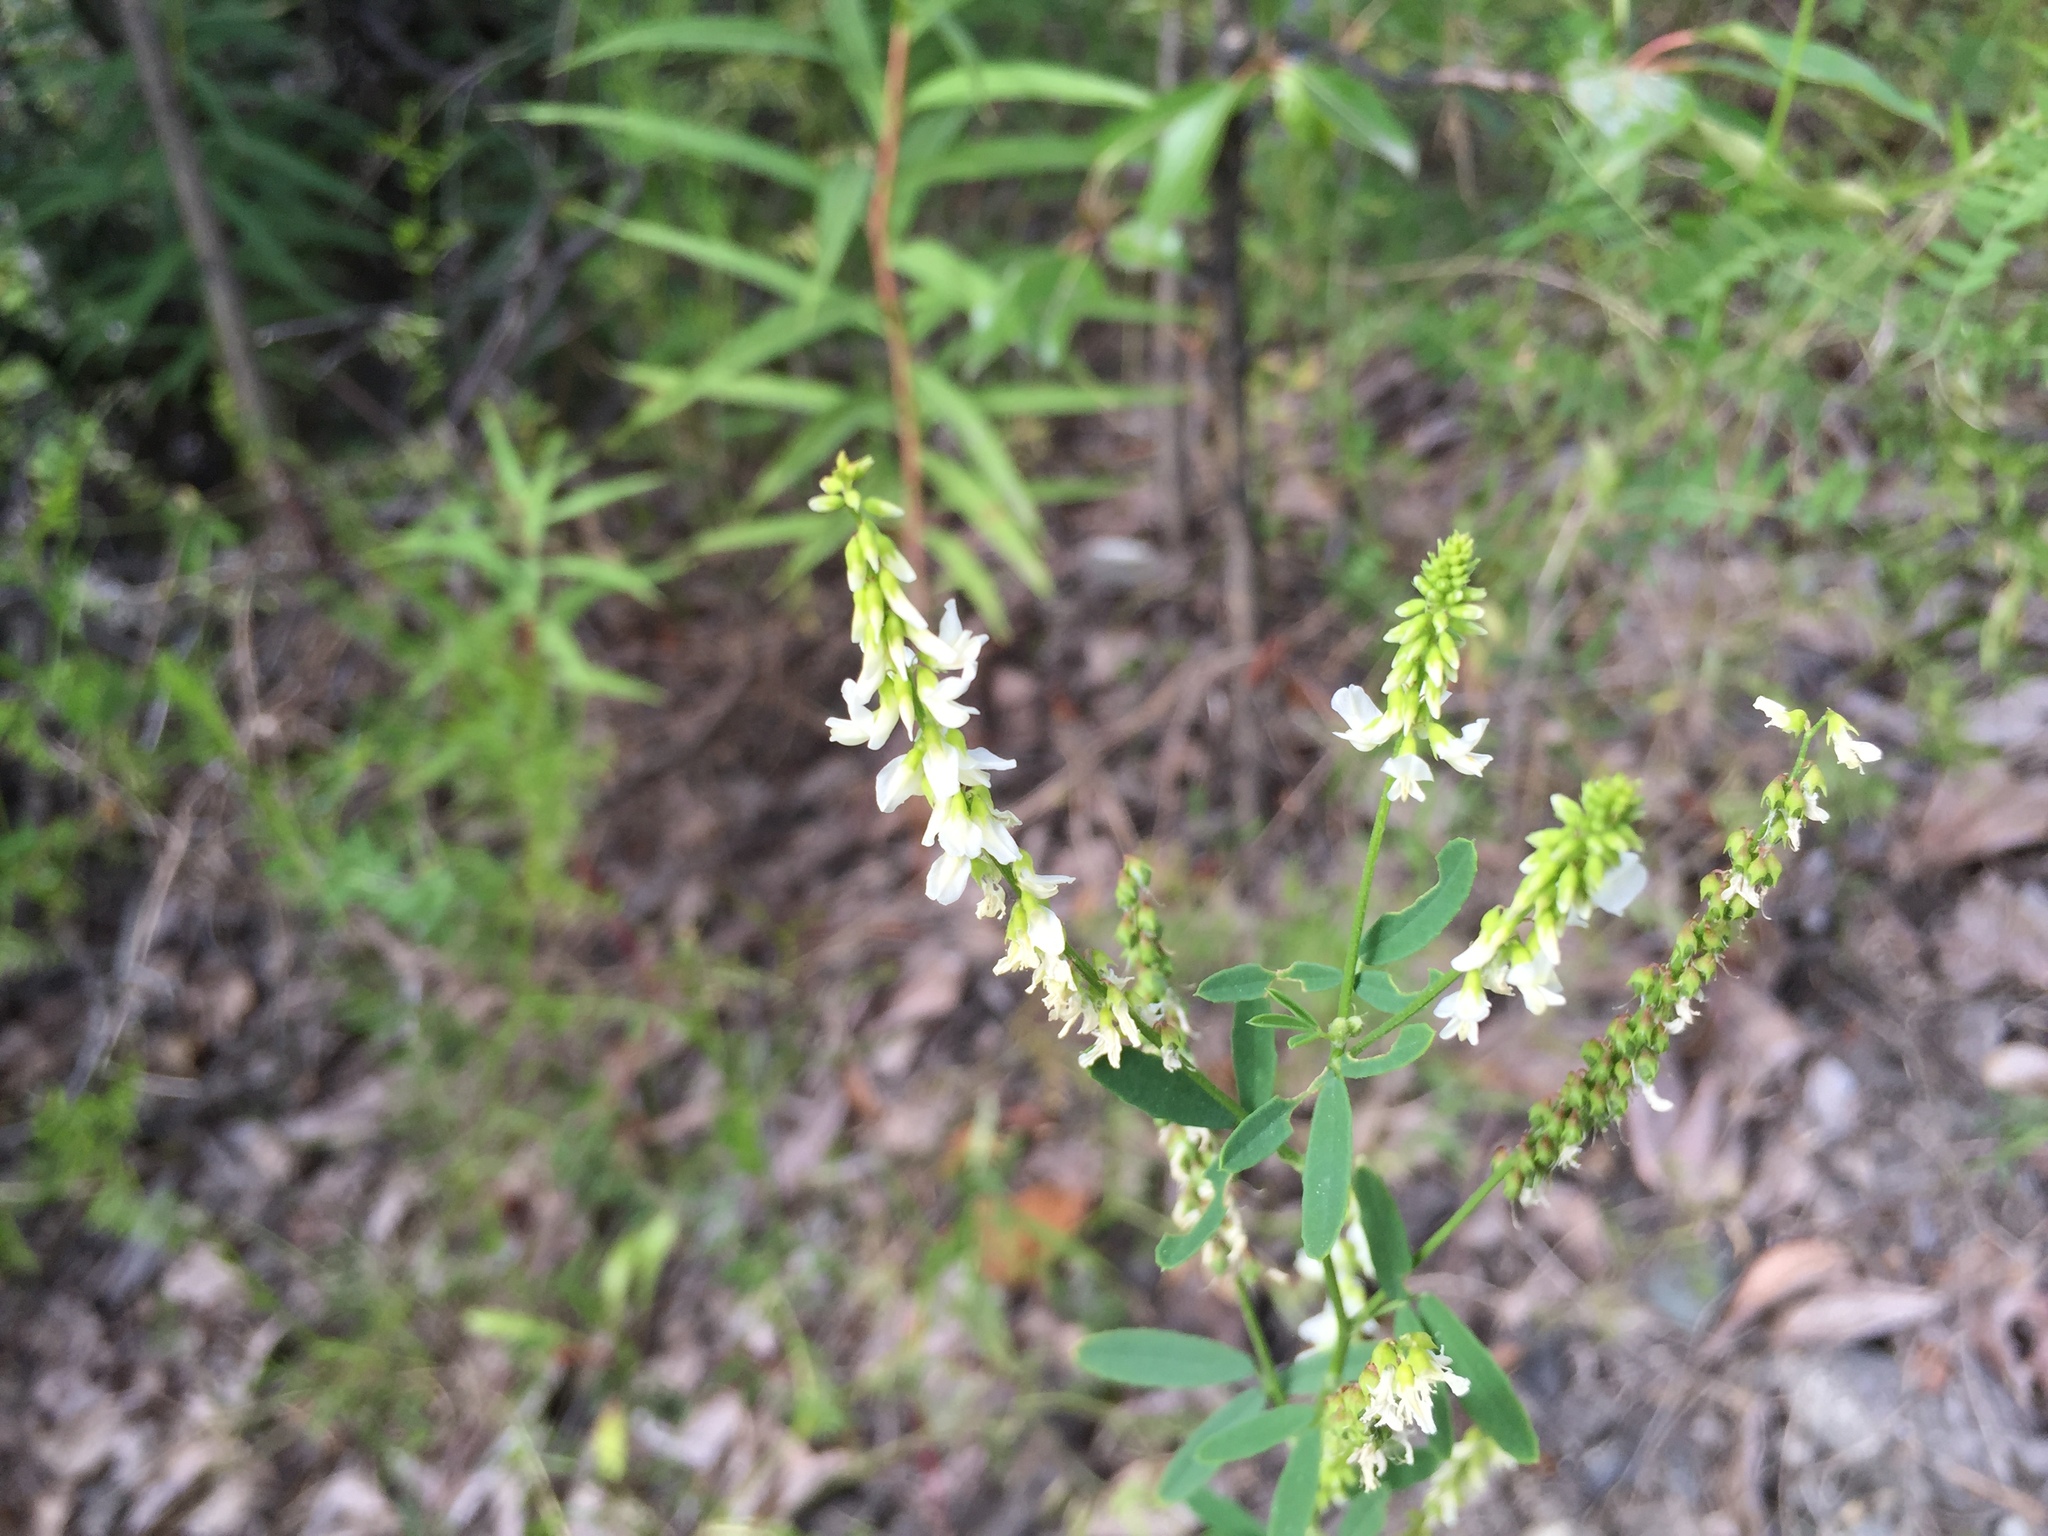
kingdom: Plantae
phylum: Tracheophyta
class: Magnoliopsida
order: Fabales
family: Fabaceae
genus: Melilotus
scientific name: Melilotus albus
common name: White melilot
